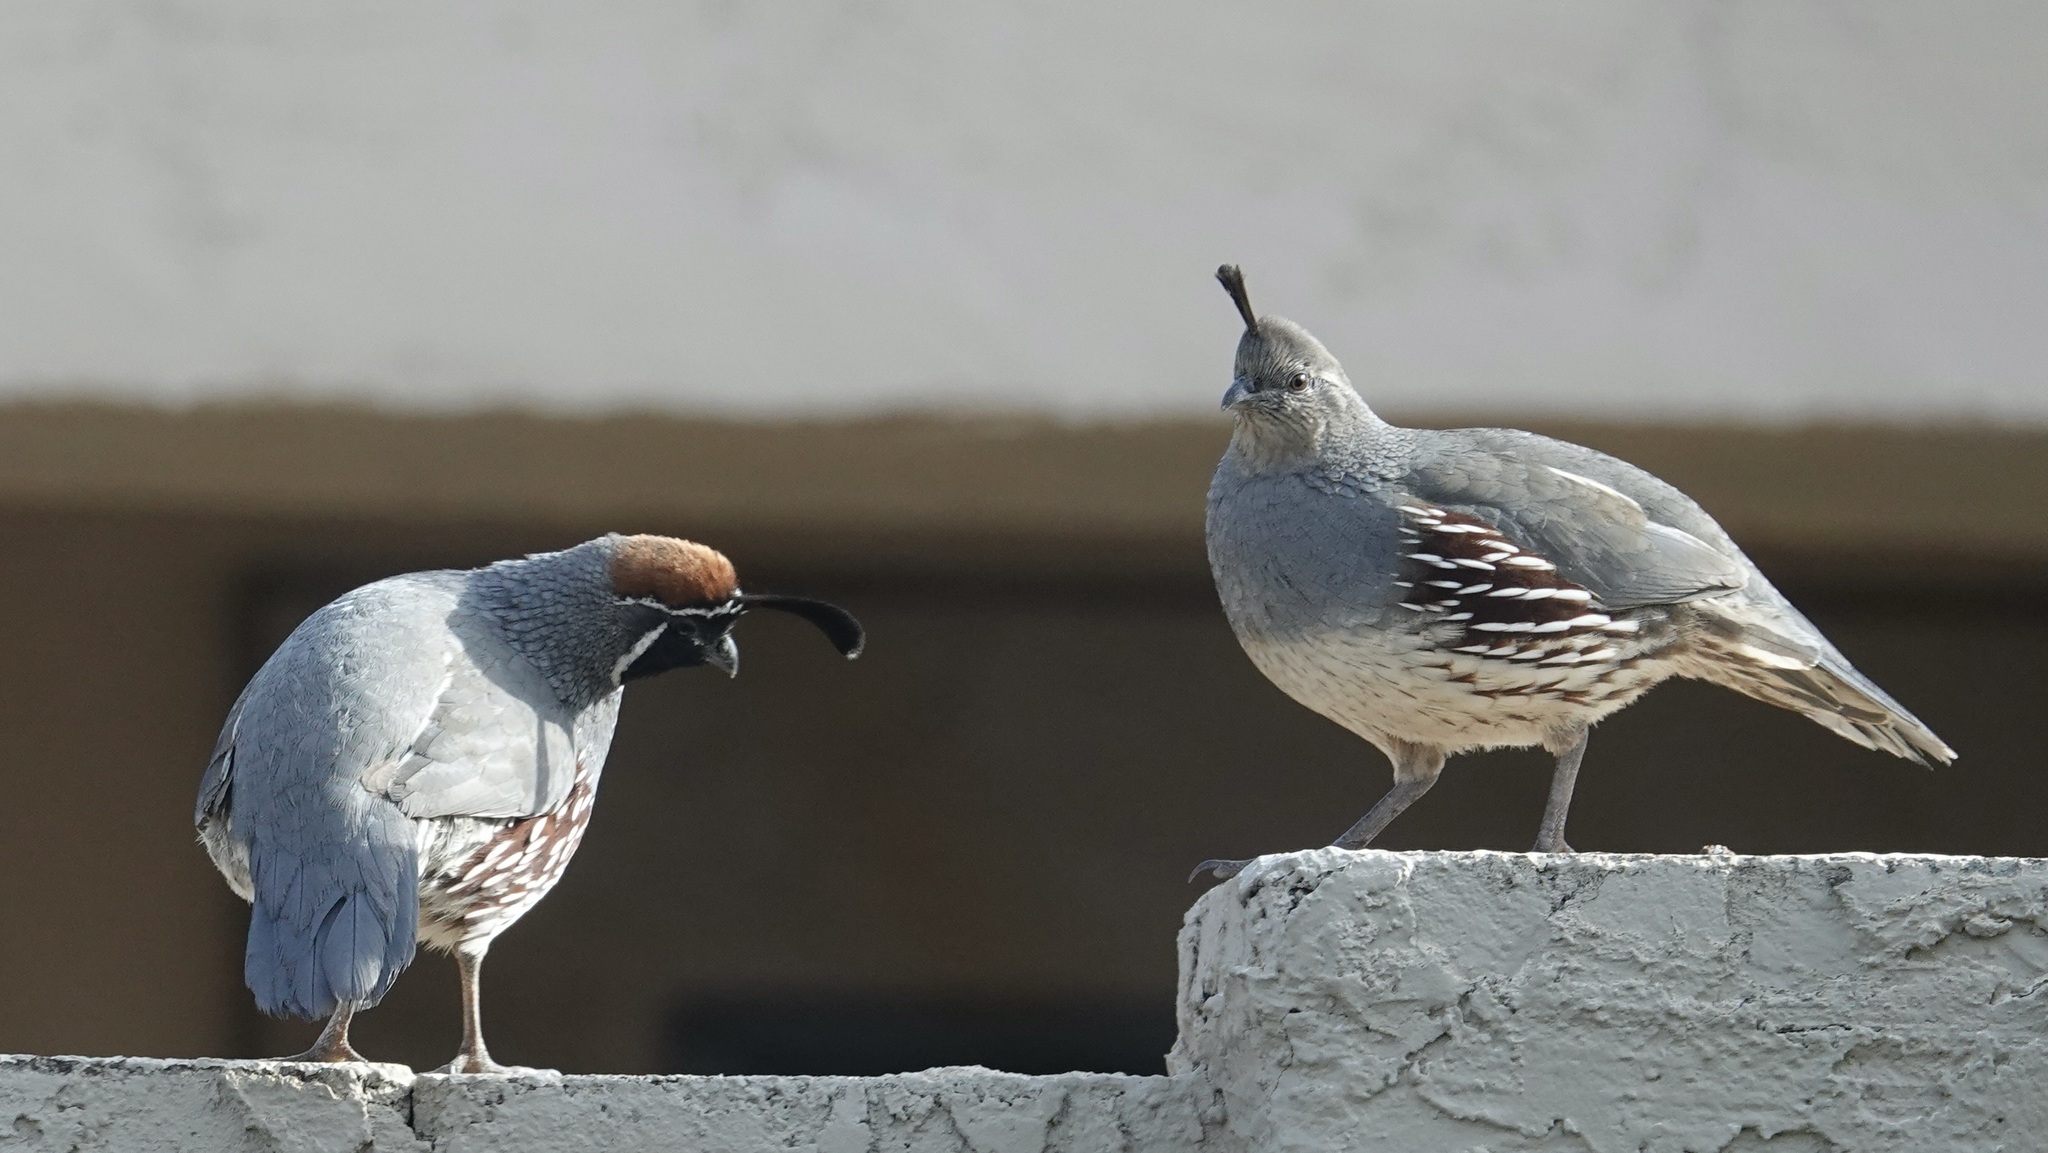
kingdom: Animalia
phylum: Chordata
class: Aves
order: Galliformes
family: Odontophoridae
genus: Callipepla
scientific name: Callipepla gambelii
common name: Gambel's quail
